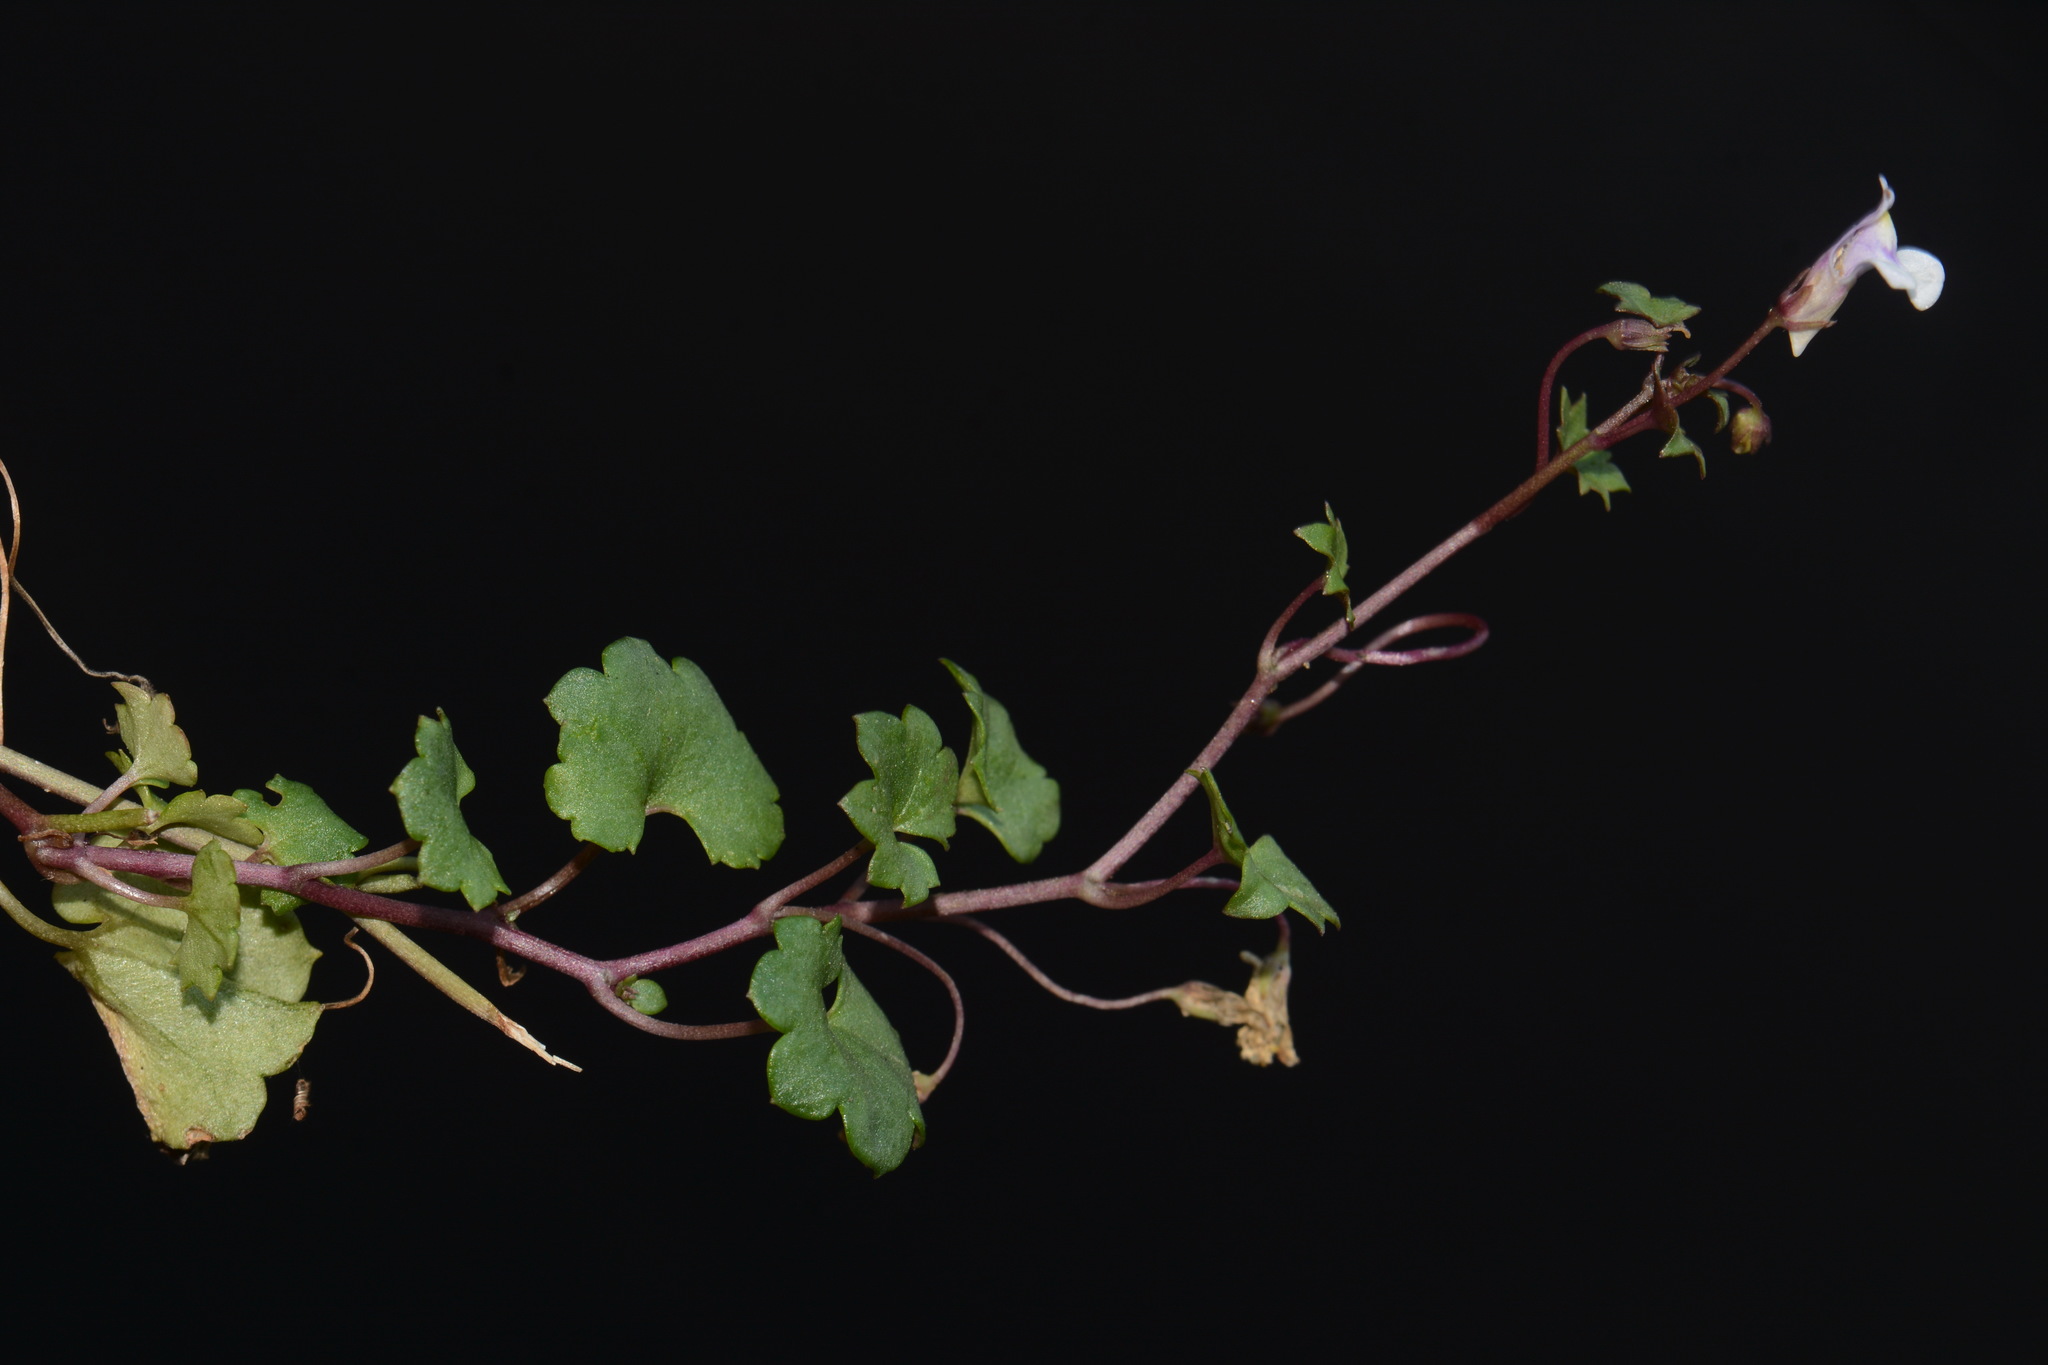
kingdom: Plantae
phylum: Tracheophyta
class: Magnoliopsida
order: Lamiales
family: Plantaginaceae
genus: Cymbalaria
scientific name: Cymbalaria muralis
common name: Ivy-leaved toadflax
